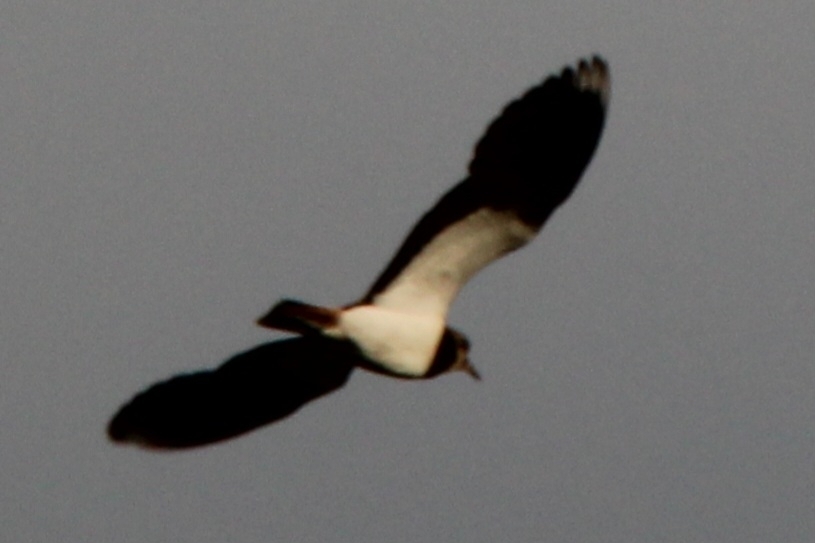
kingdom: Animalia
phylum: Chordata
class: Aves
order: Charadriiformes
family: Charadriidae
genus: Vanellus
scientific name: Vanellus vanellus
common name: Northern lapwing
